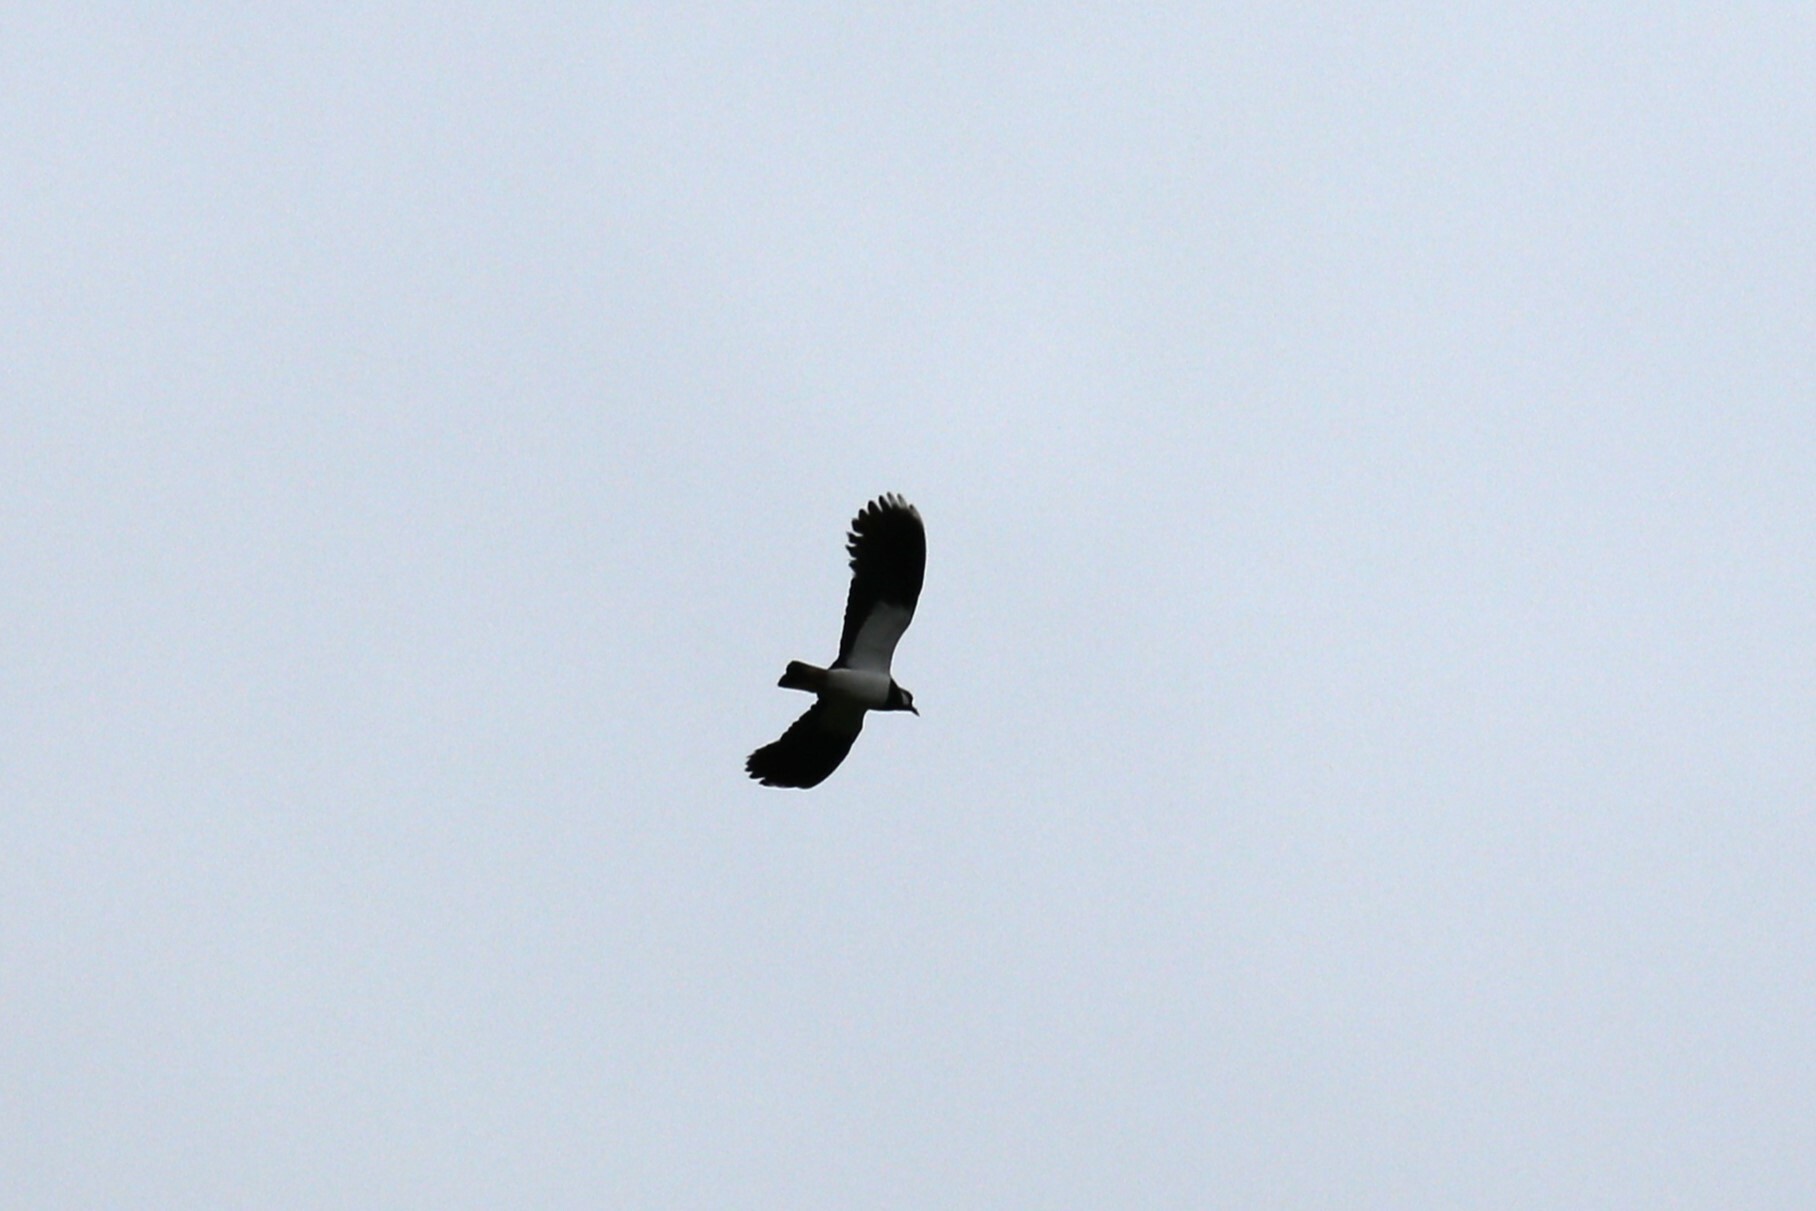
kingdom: Animalia
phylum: Chordata
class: Aves
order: Charadriiformes
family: Charadriidae
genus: Vanellus
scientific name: Vanellus vanellus
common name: Northern lapwing
